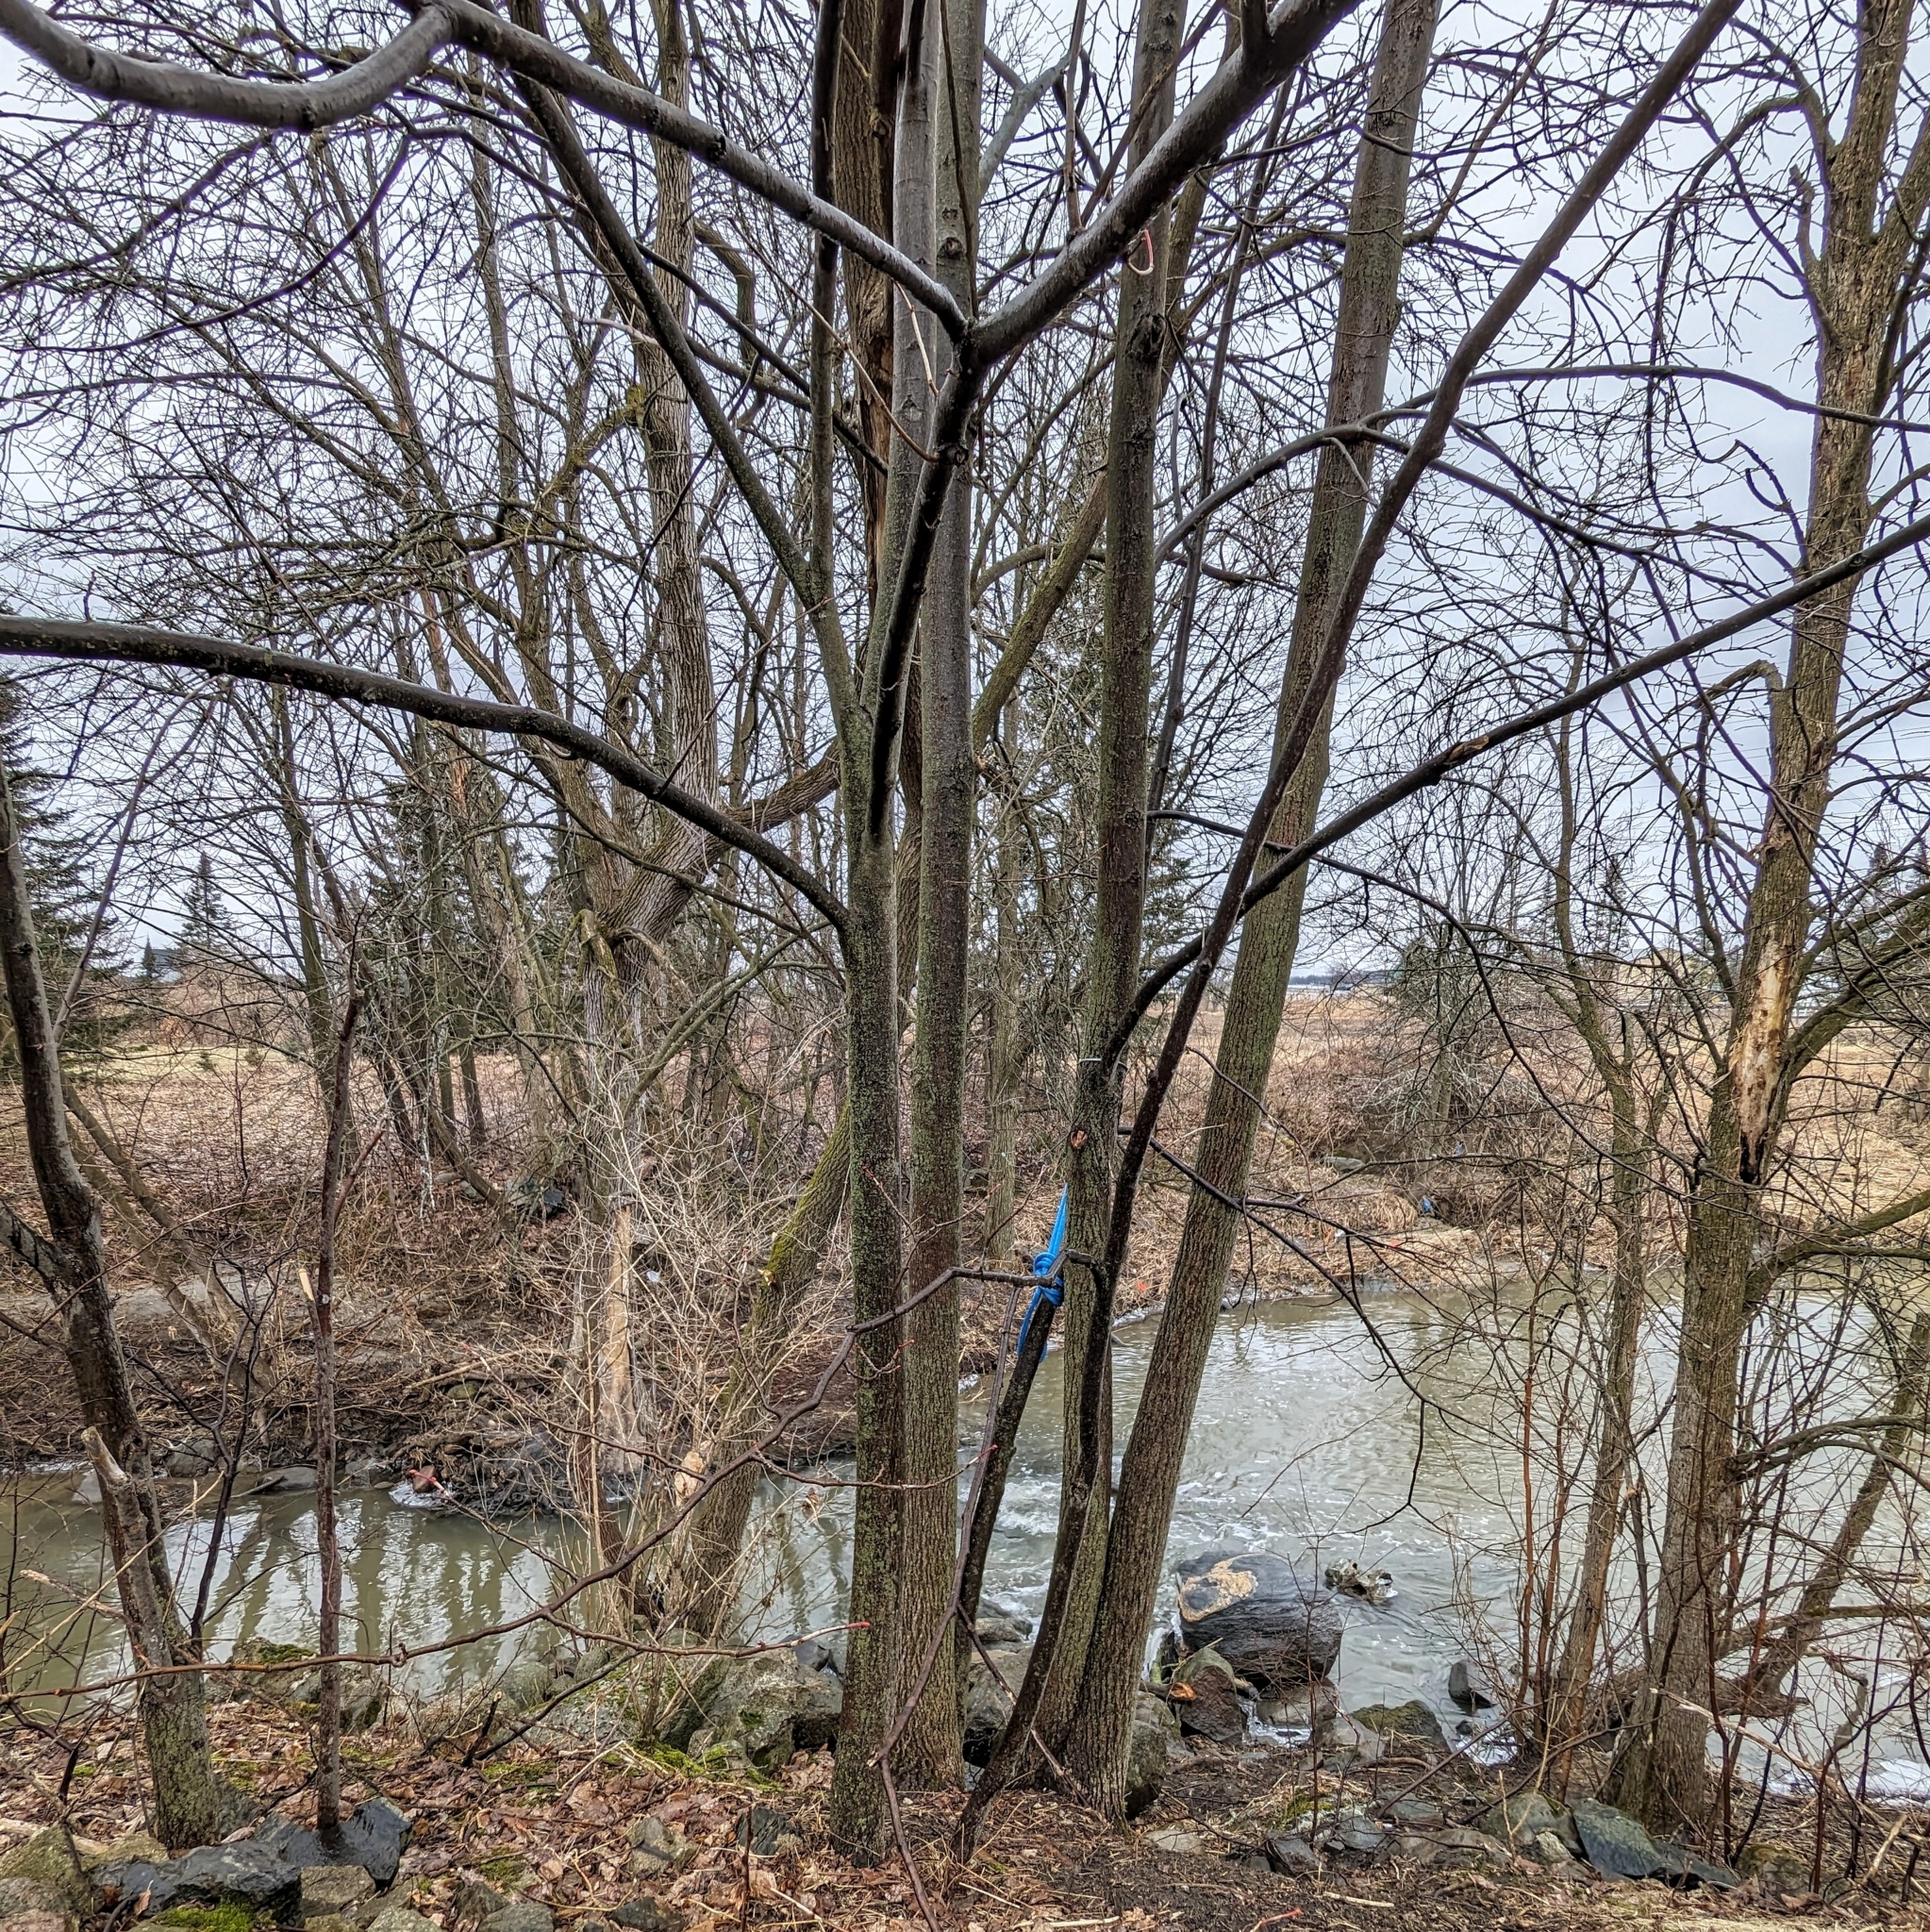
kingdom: Plantae
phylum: Tracheophyta
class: Magnoliopsida
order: Malvales
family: Malvaceae
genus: Tilia
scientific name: Tilia americana
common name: Basswood
